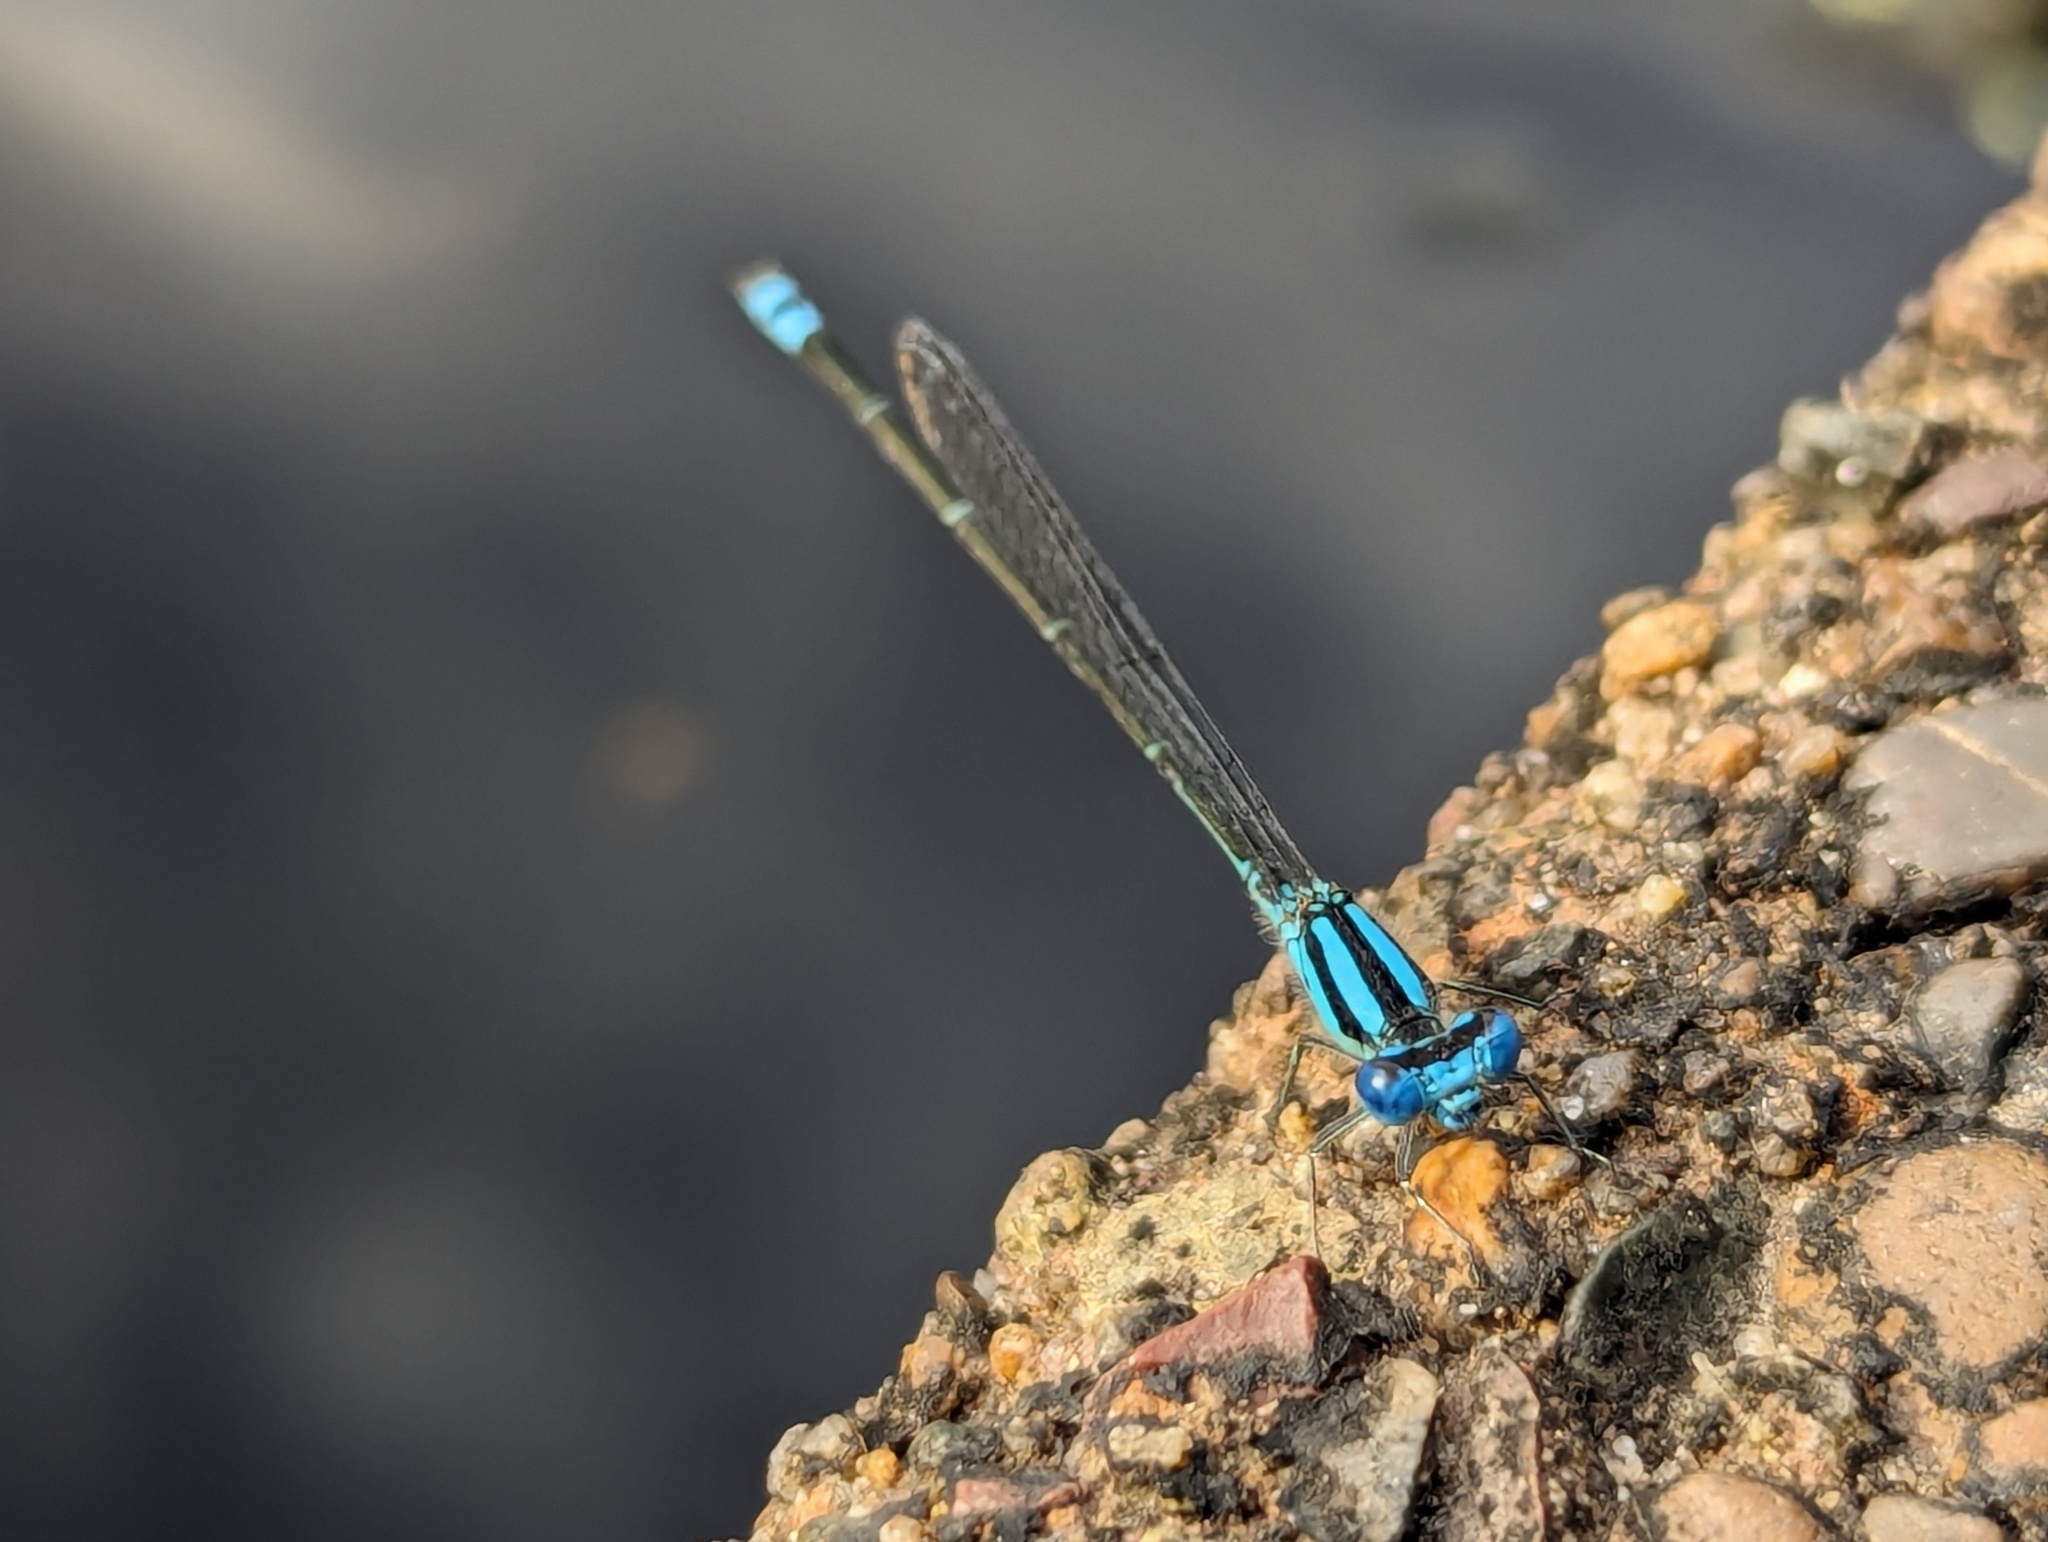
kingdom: Animalia
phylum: Arthropoda
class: Insecta
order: Odonata
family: Coenagrionidae
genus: Pseudagrion
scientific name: Pseudagrion microcephalum
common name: Blue riverdamsel
